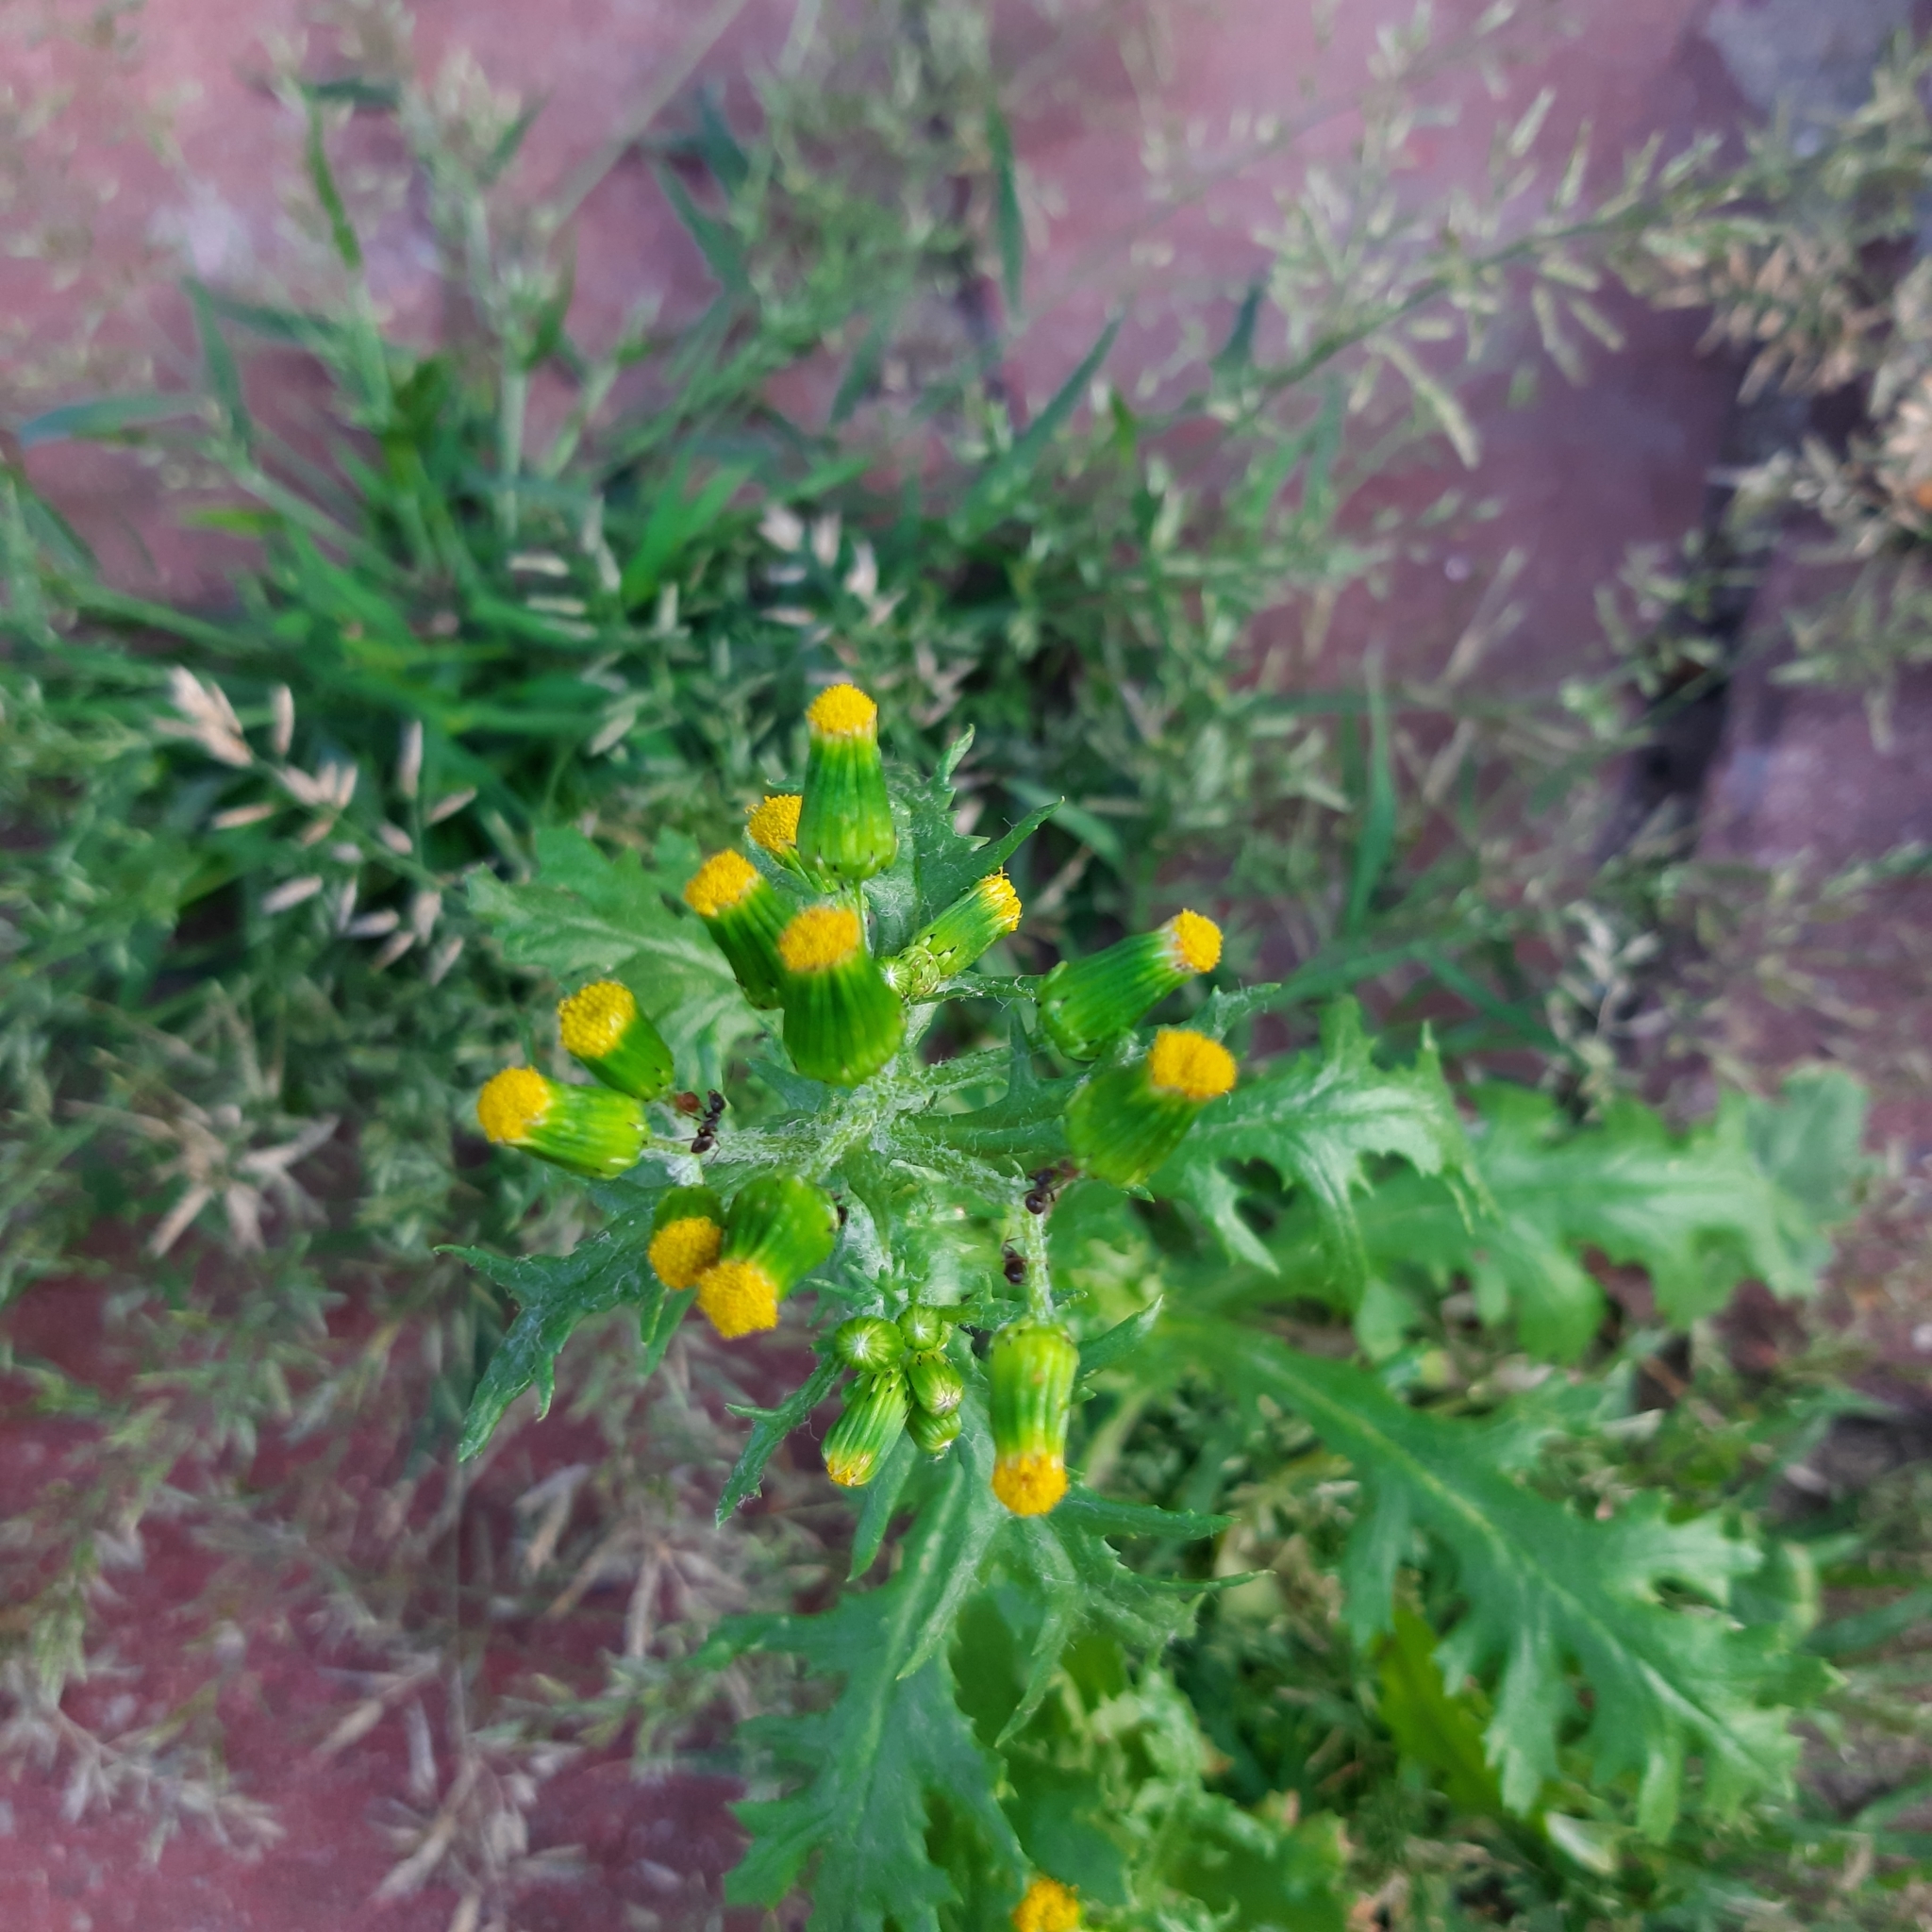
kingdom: Plantae
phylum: Tracheophyta
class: Magnoliopsida
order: Asterales
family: Asteraceae
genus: Senecio
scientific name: Senecio vulgaris
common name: Old-man-in-the-spring
